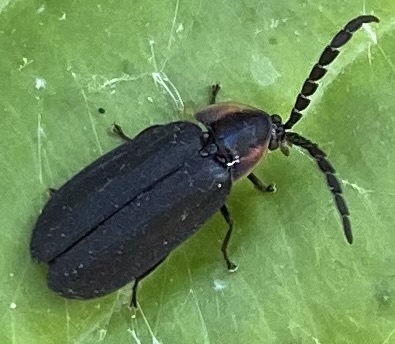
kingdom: Animalia
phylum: Arthropoda
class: Insecta
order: Coleoptera
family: Lampyridae
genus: Lucidota
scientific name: Lucidota atra
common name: Black firefly
